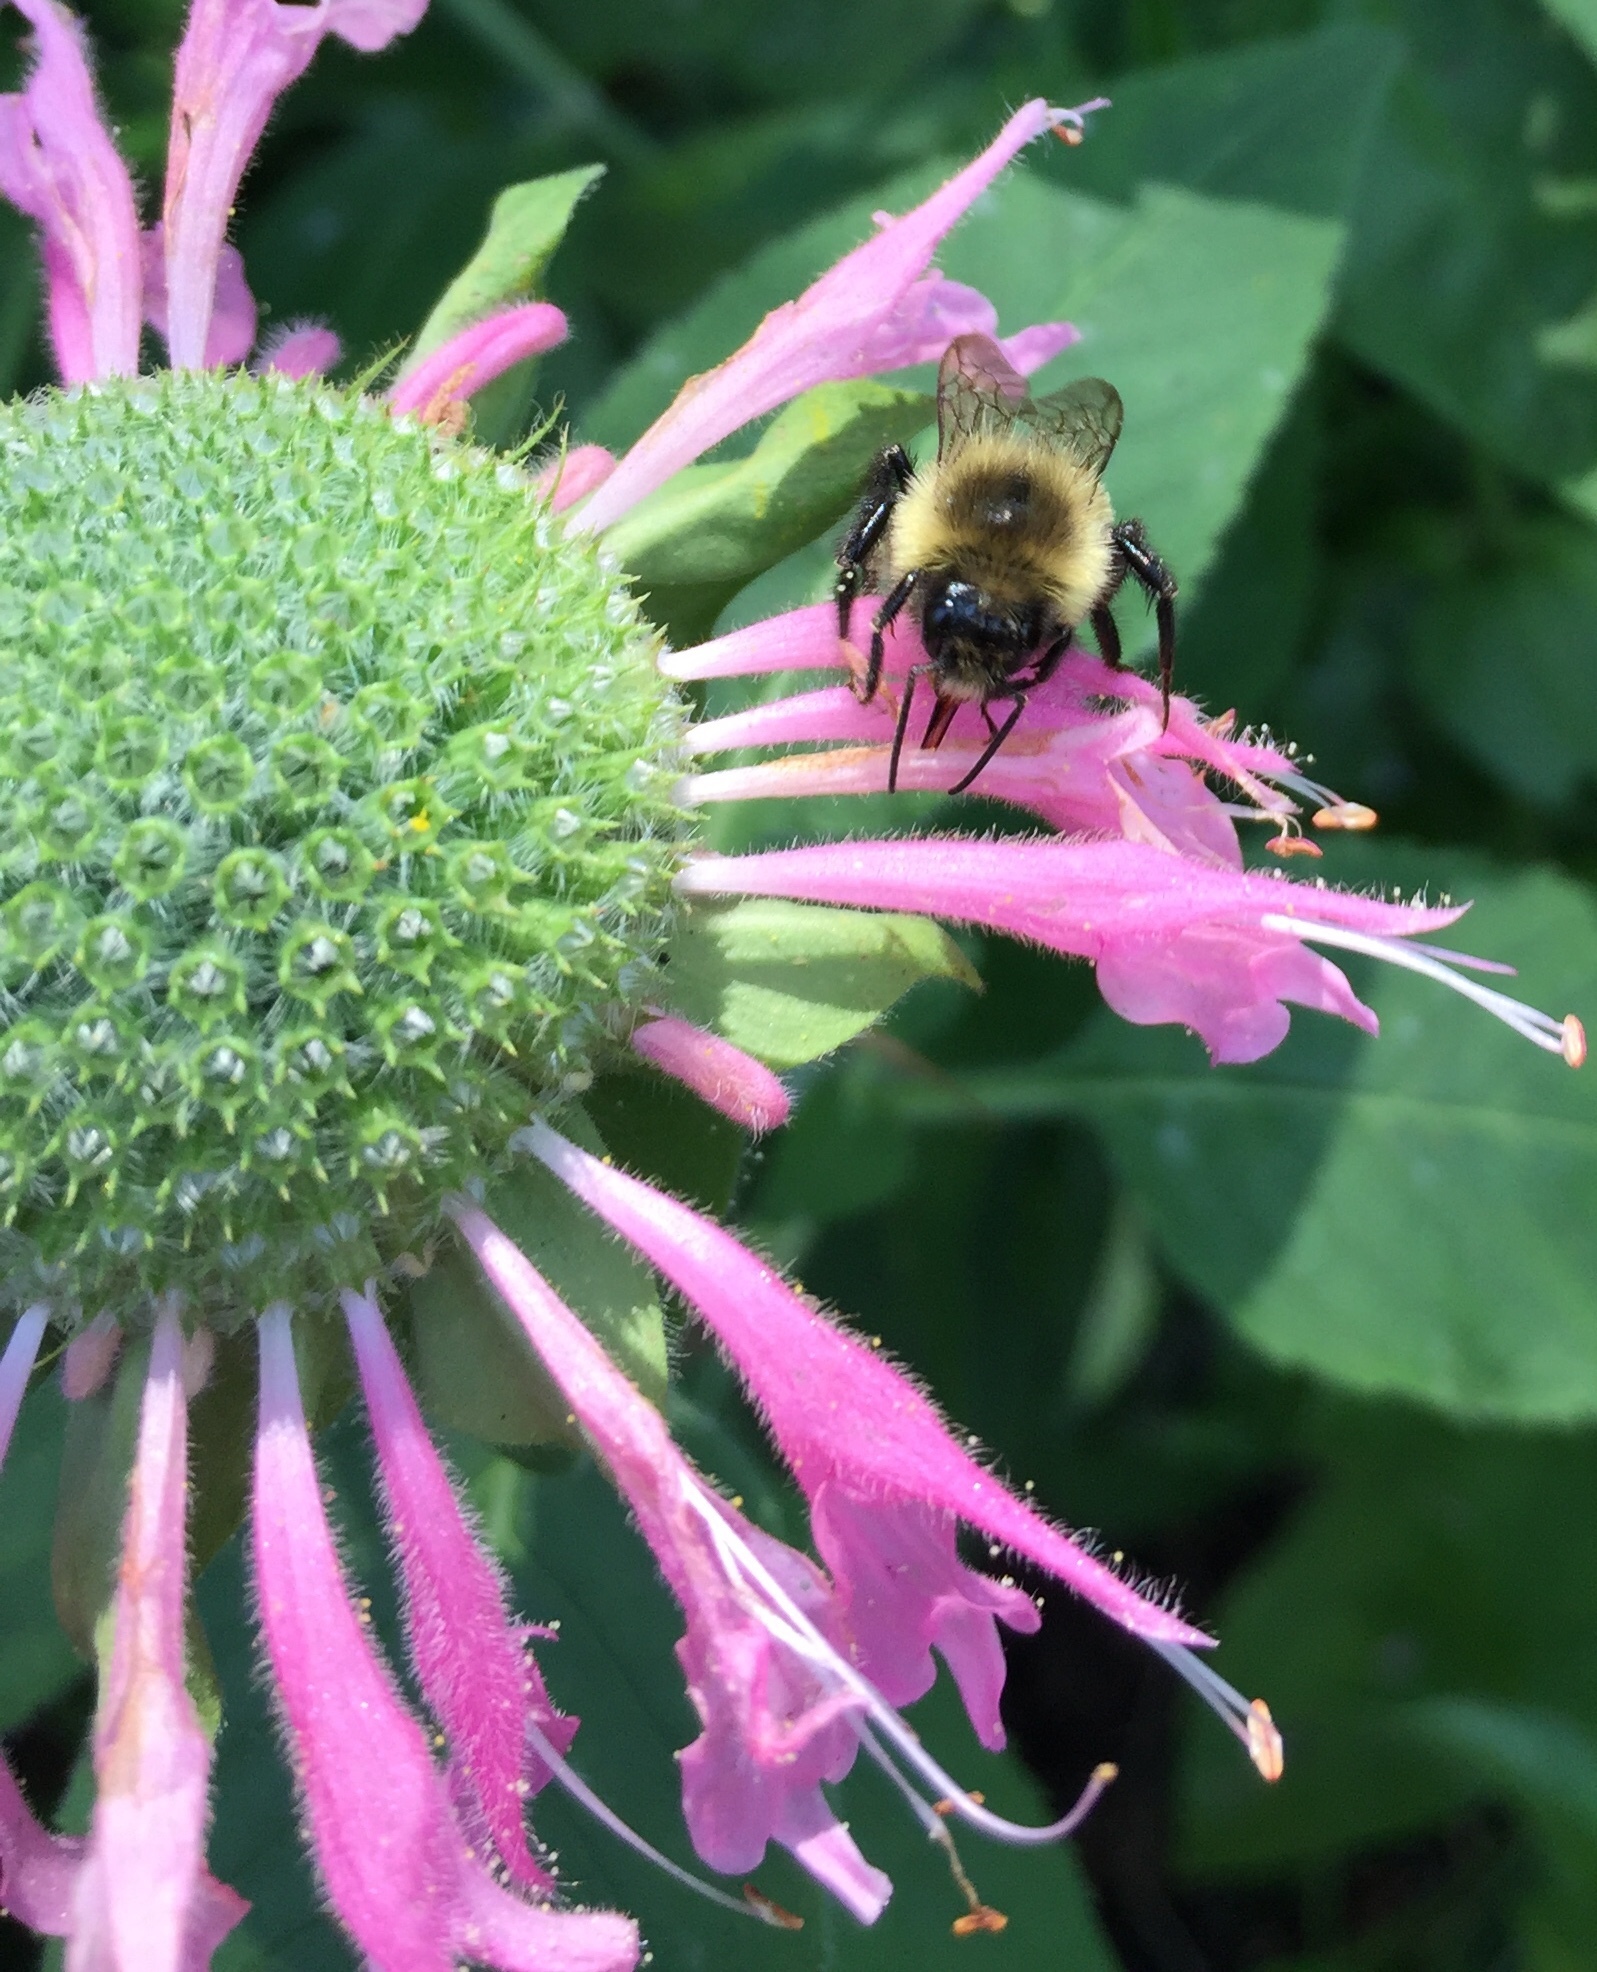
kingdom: Animalia
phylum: Arthropoda
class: Insecta
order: Hymenoptera
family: Apidae
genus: Bombus
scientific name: Bombus impatiens
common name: Common eastern bumble bee
